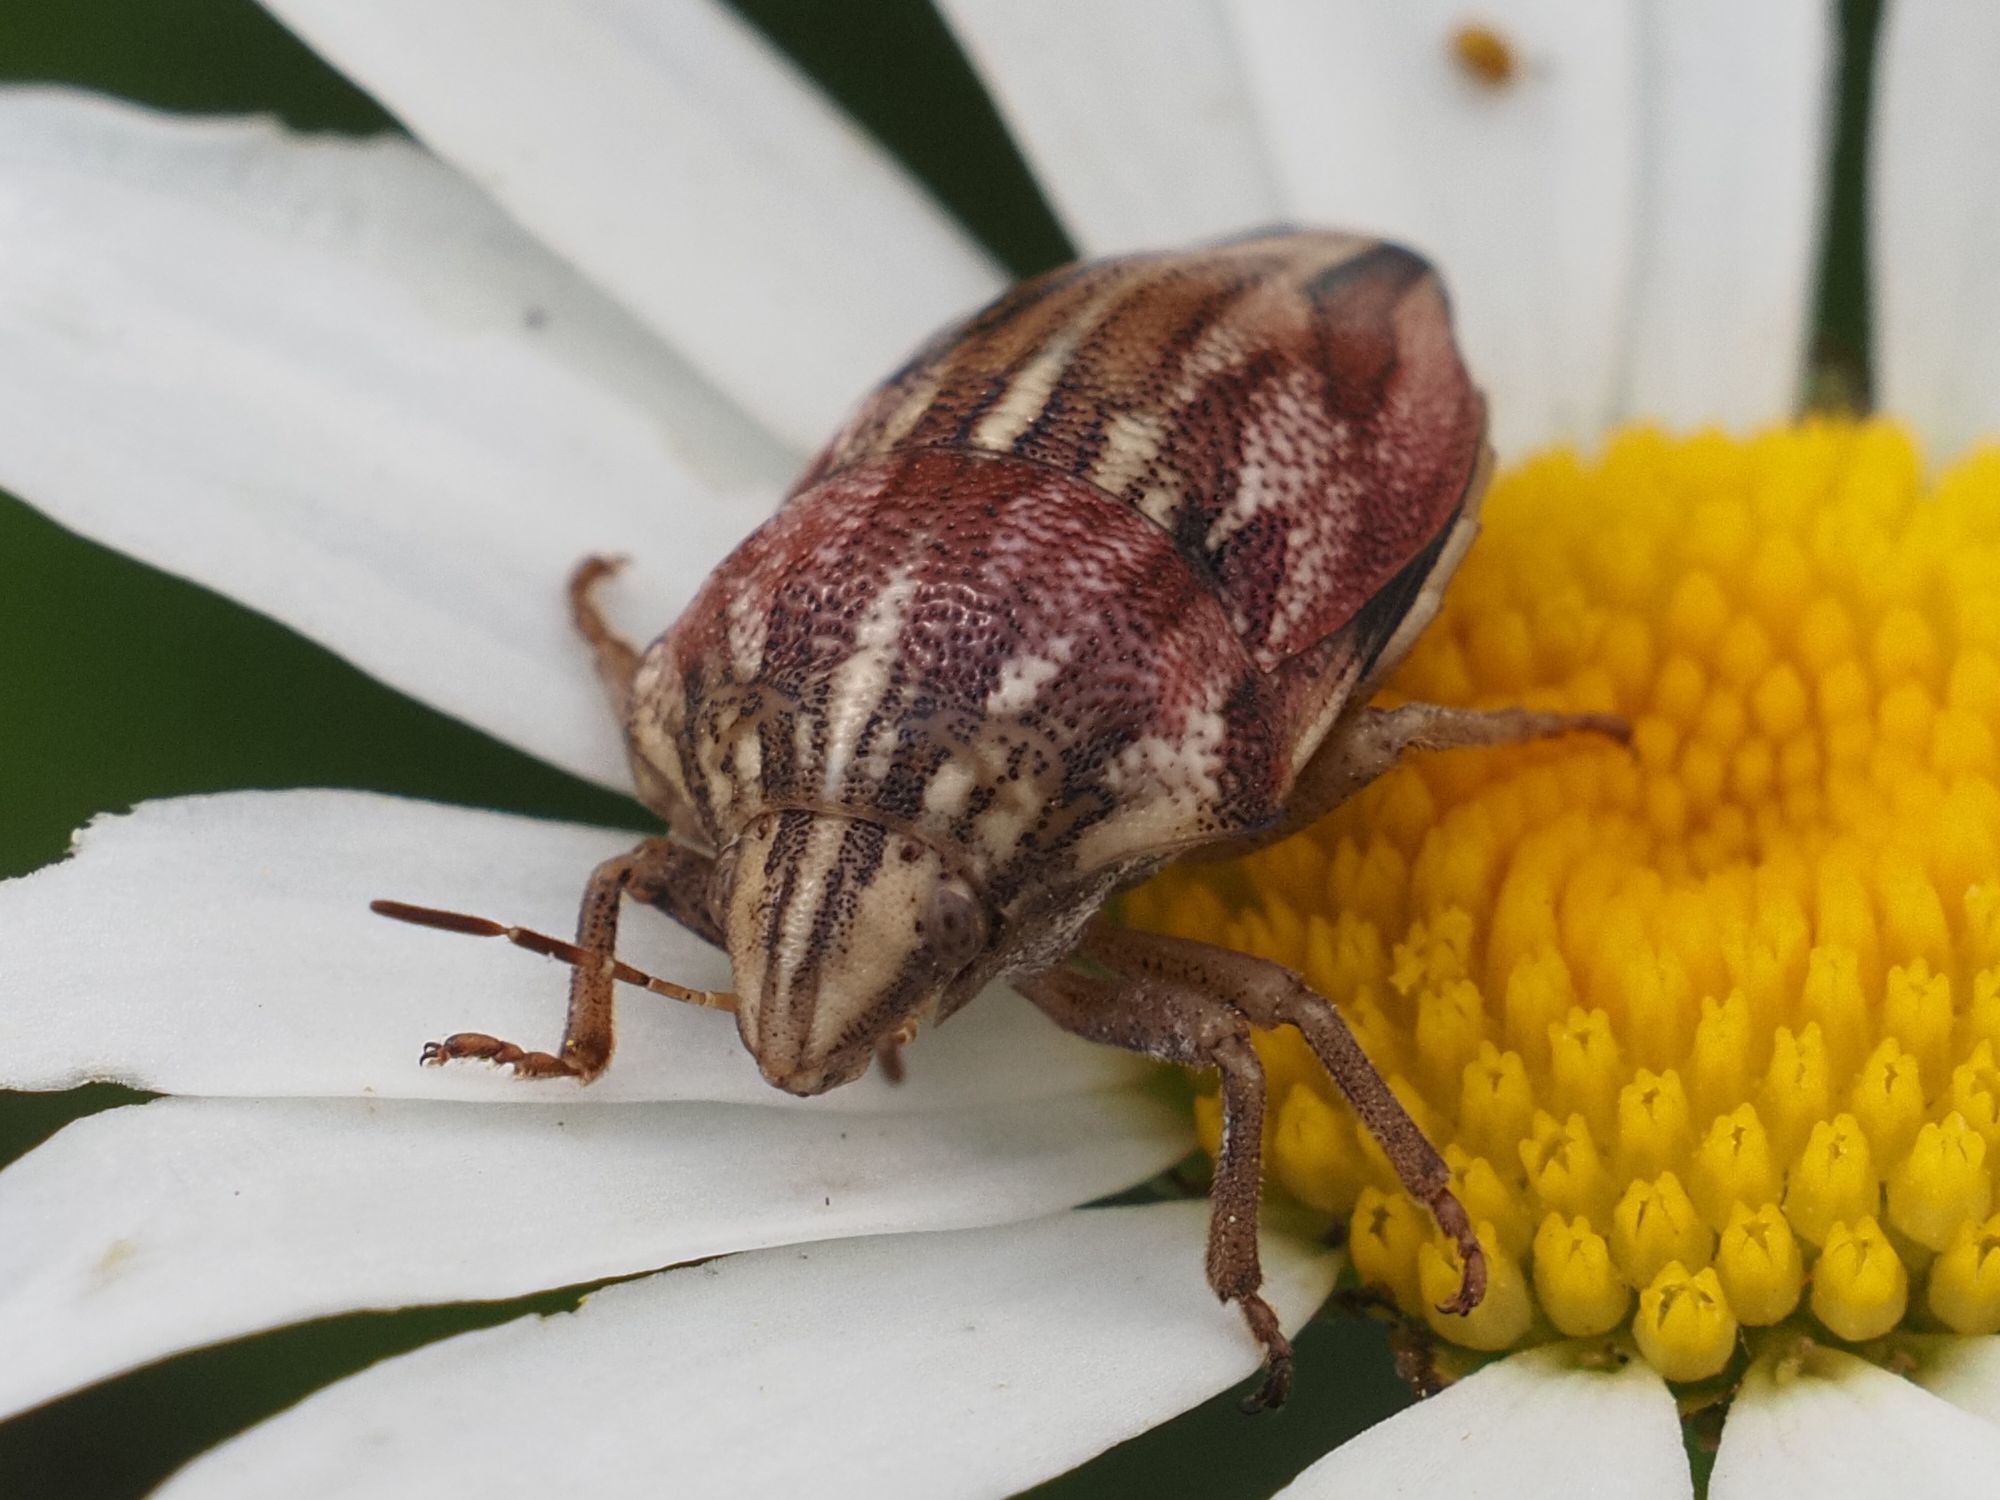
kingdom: Animalia
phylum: Arthropoda
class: Insecta
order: Hemiptera
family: Scutelleridae
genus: Odontotarsus
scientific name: Odontotarsus purpureolineatus
